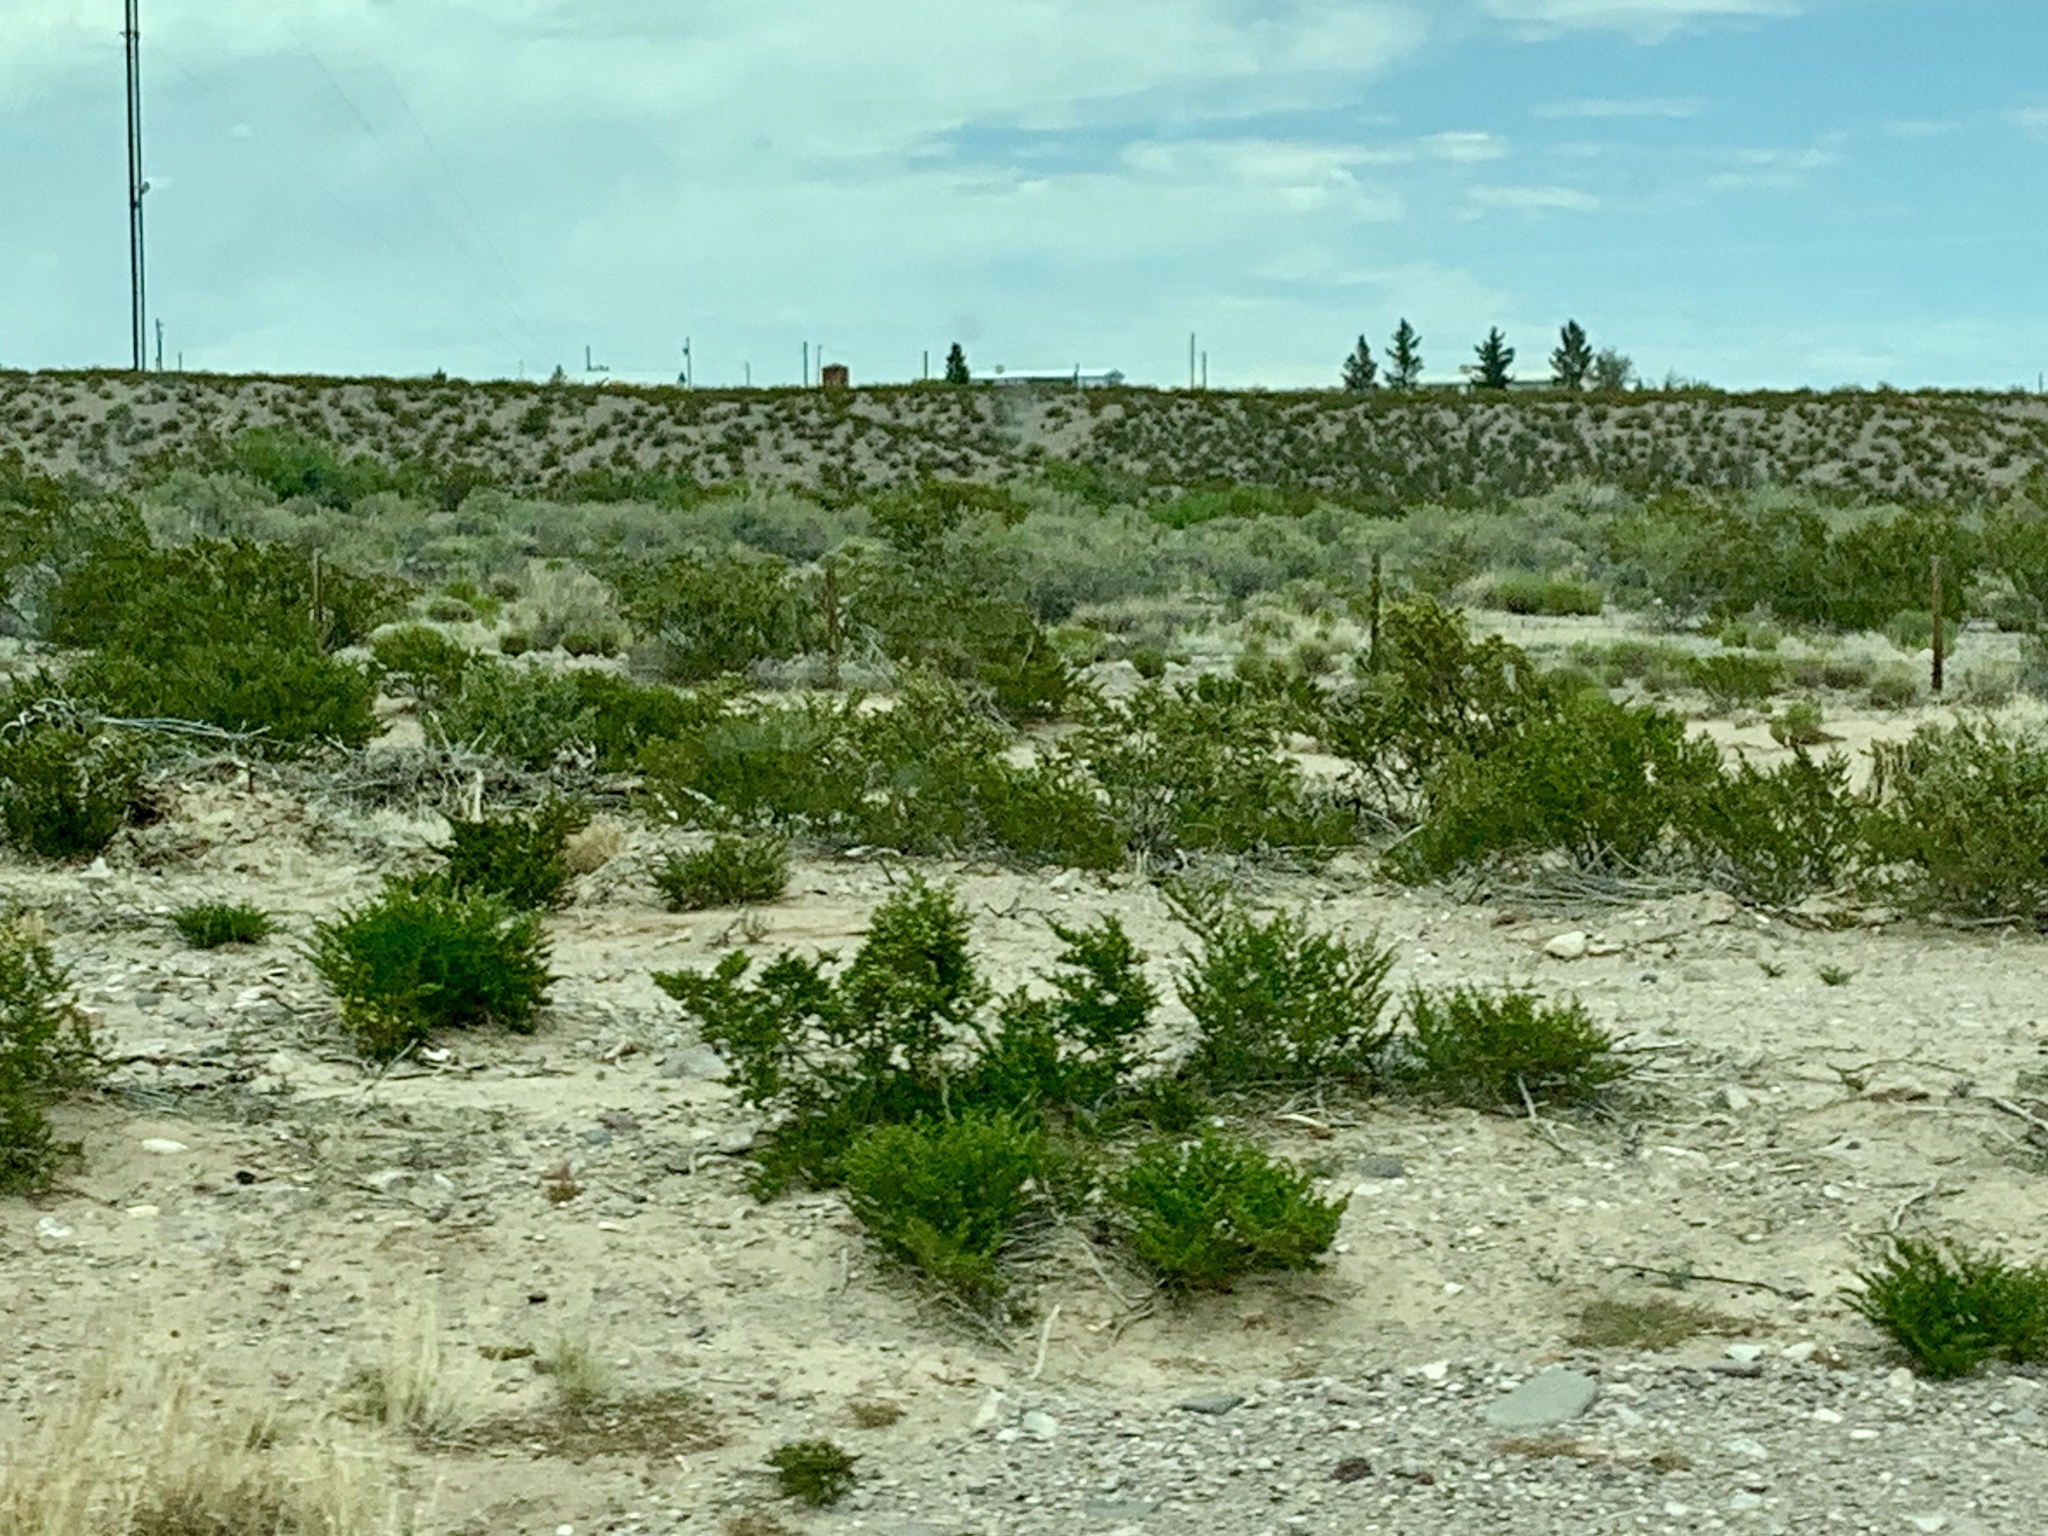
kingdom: Plantae
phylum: Tracheophyta
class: Magnoliopsida
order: Zygophyllales
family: Zygophyllaceae
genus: Larrea
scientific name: Larrea tridentata
